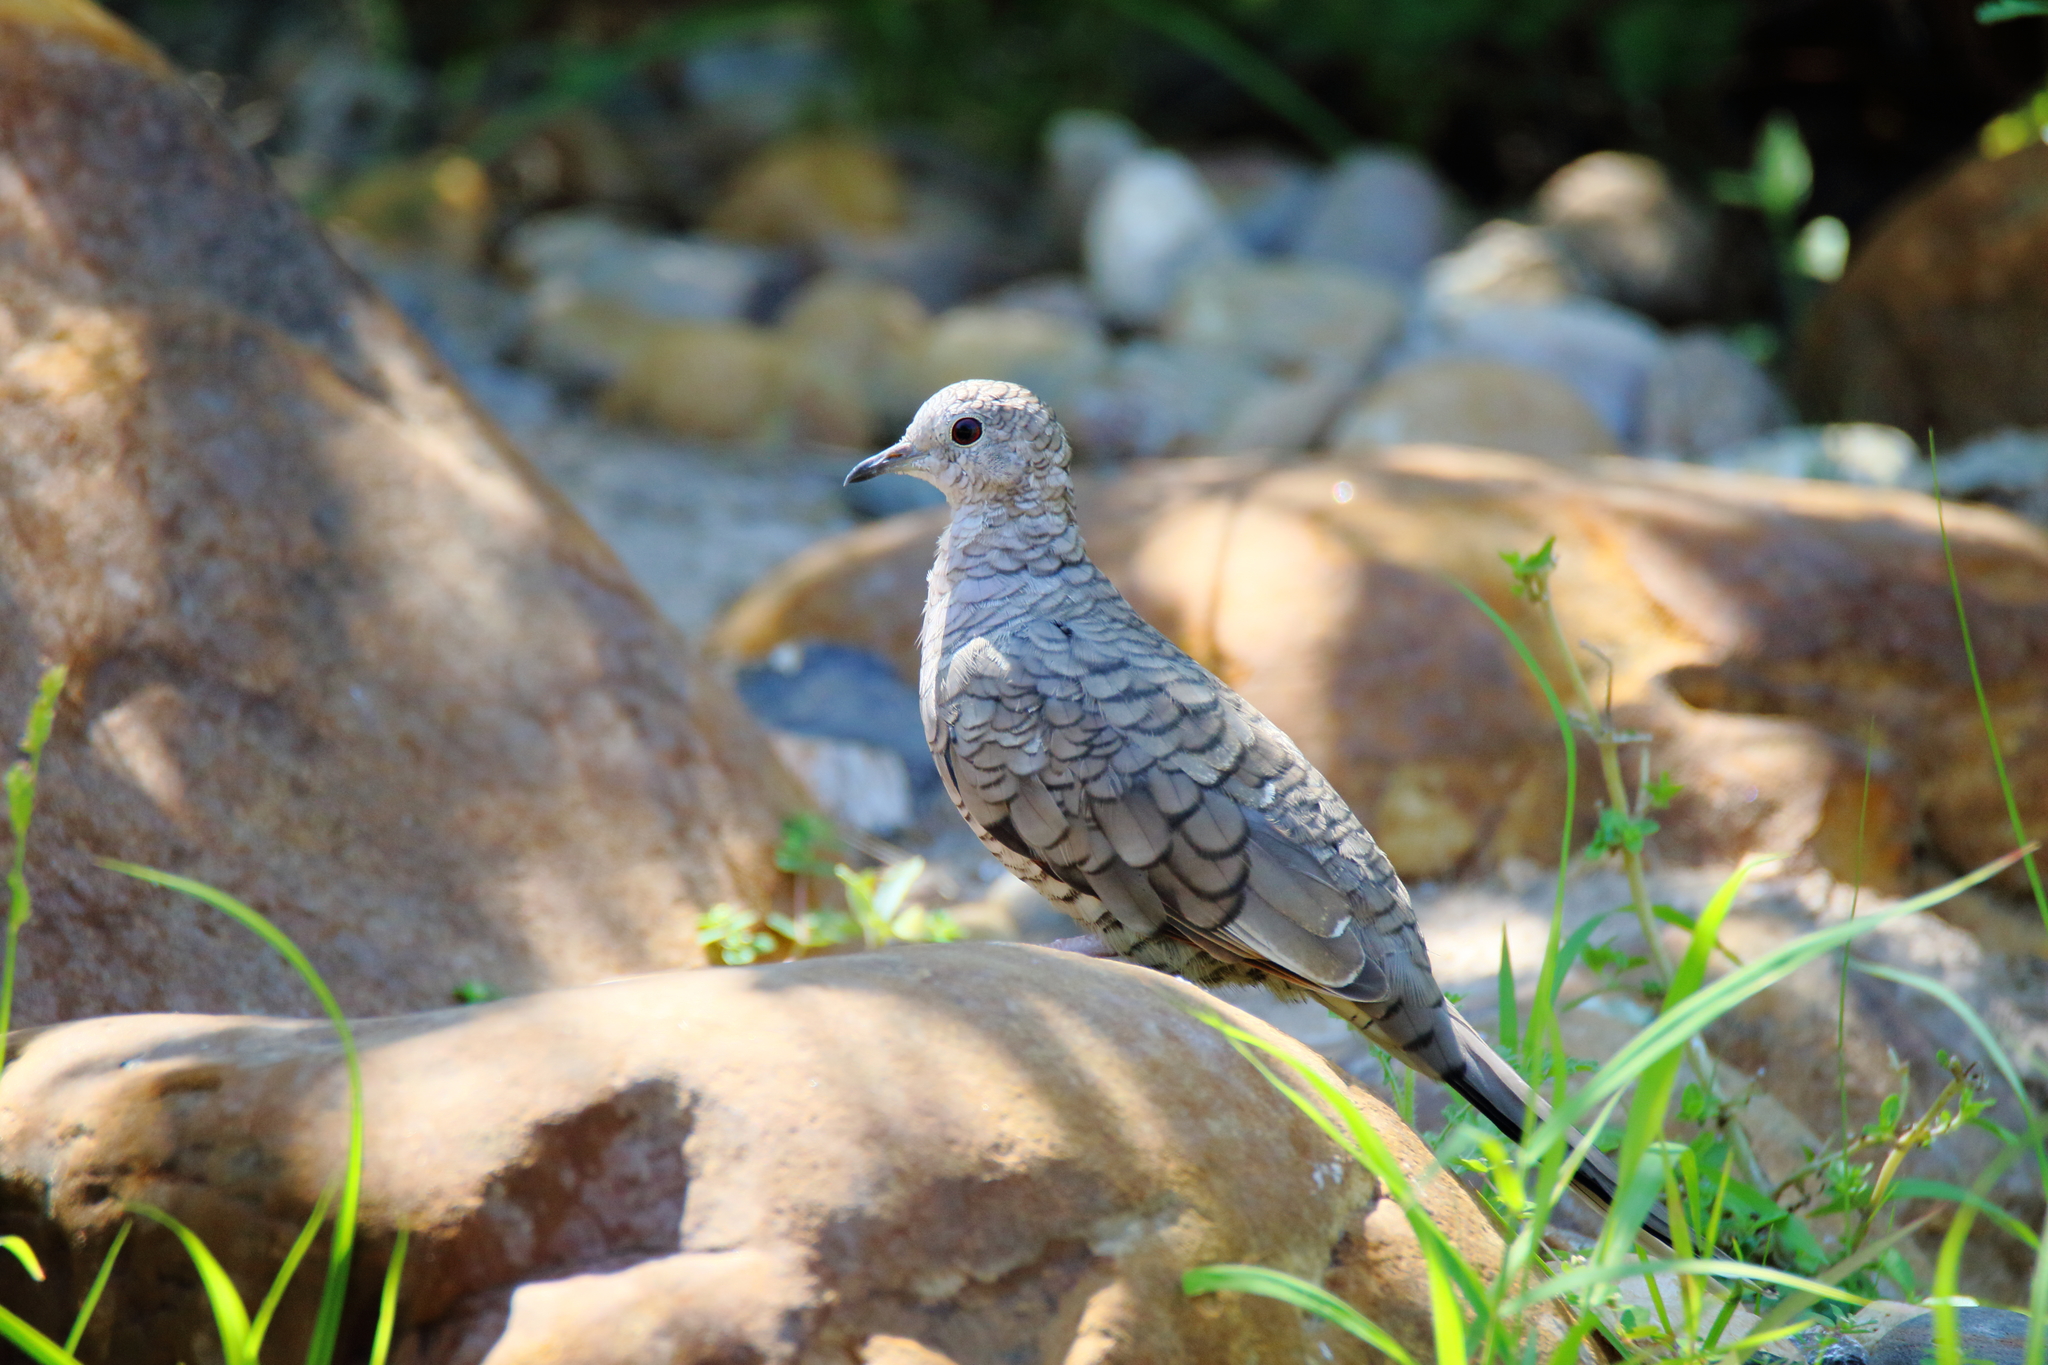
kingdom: Animalia
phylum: Chordata
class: Aves
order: Columbiformes
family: Columbidae
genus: Columbina
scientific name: Columbina inca
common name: Inca dove
